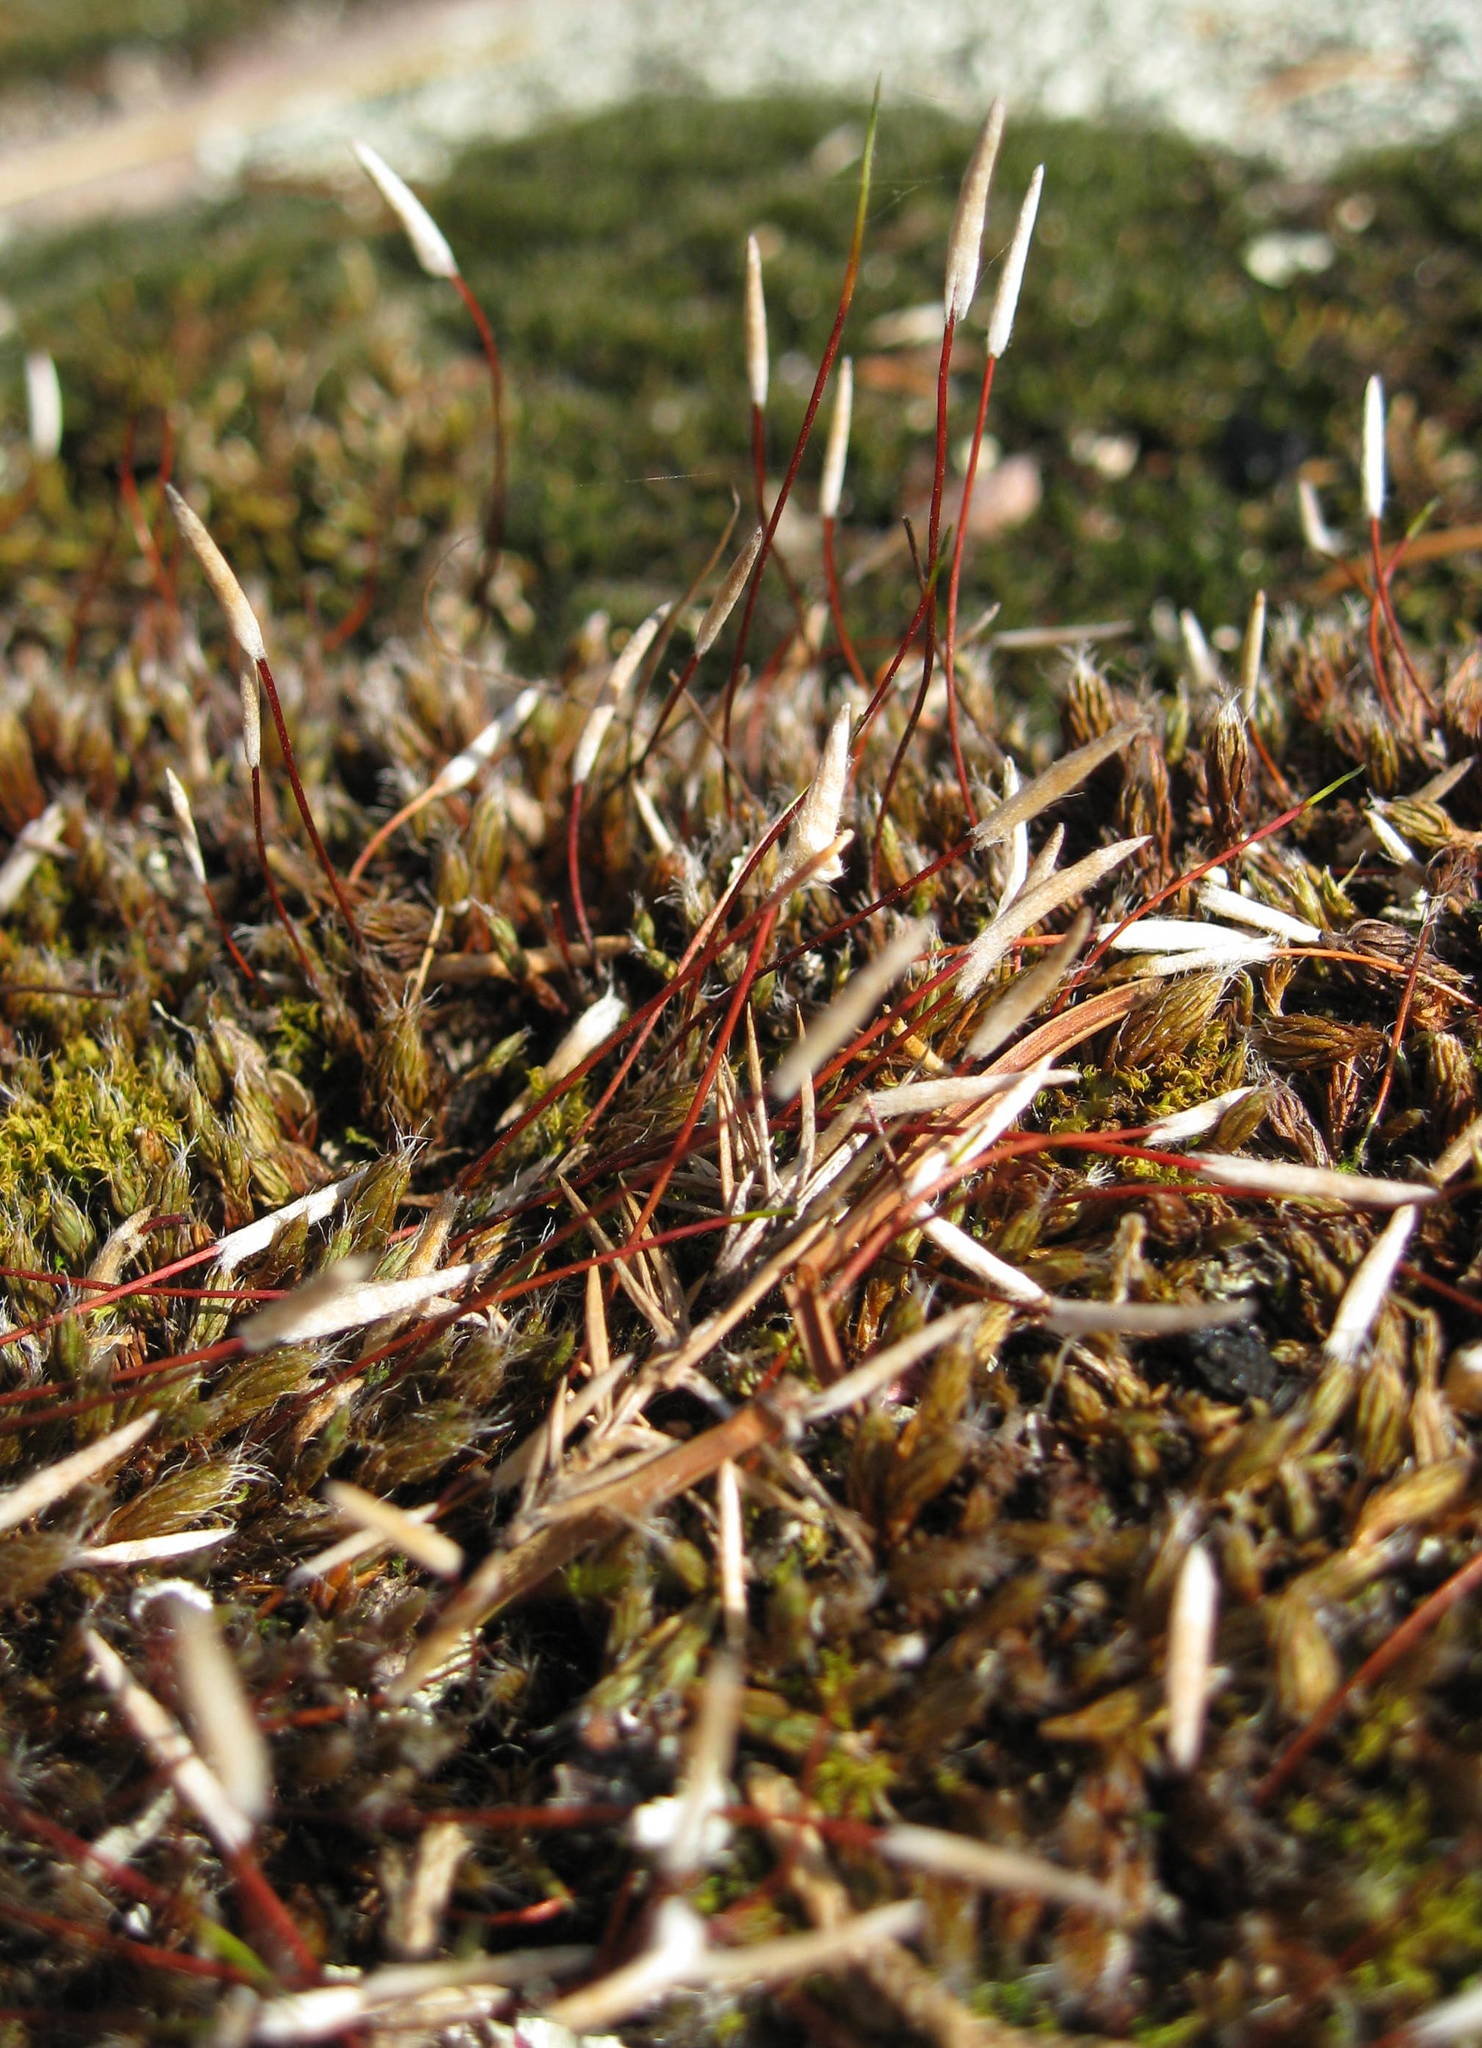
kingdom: Plantae
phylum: Bryophyta
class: Polytrichopsida
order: Polytrichales
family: Polytrichaceae
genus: Polytrichum
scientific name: Polytrichum piliferum
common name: Bristly haircap
